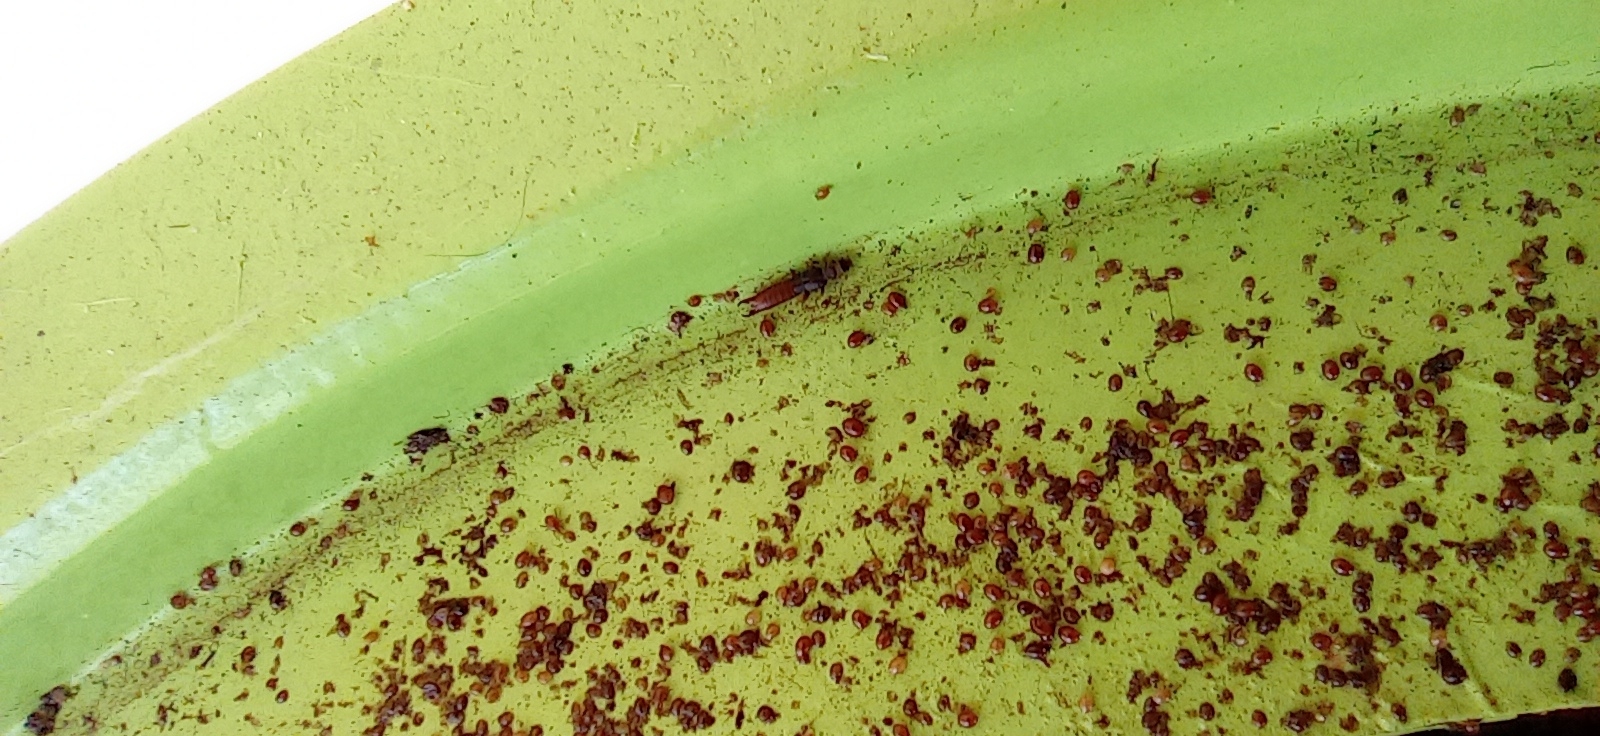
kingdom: Animalia
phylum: Arthropoda
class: Insecta
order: Dermaptera
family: Spongiphoridae
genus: Paralabella
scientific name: Paralabella curvicauda
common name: Earwig
